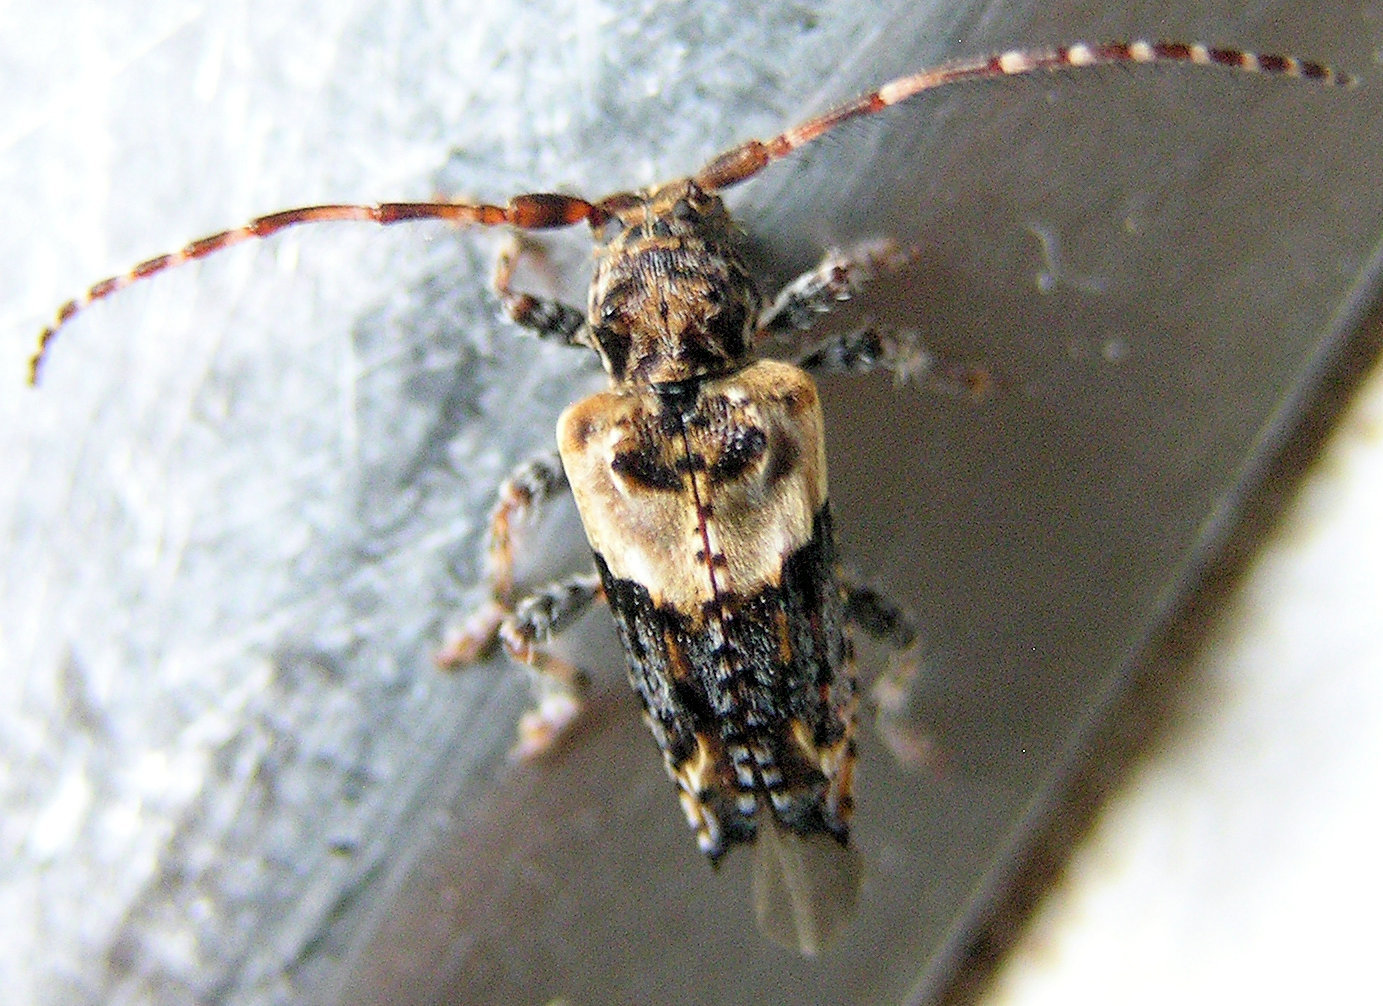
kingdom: Animalia
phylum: Arthropoda
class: Insecta
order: Coleoptera
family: Cerambycidae
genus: Pogonocherus
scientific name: Pogonocherus hispidus
